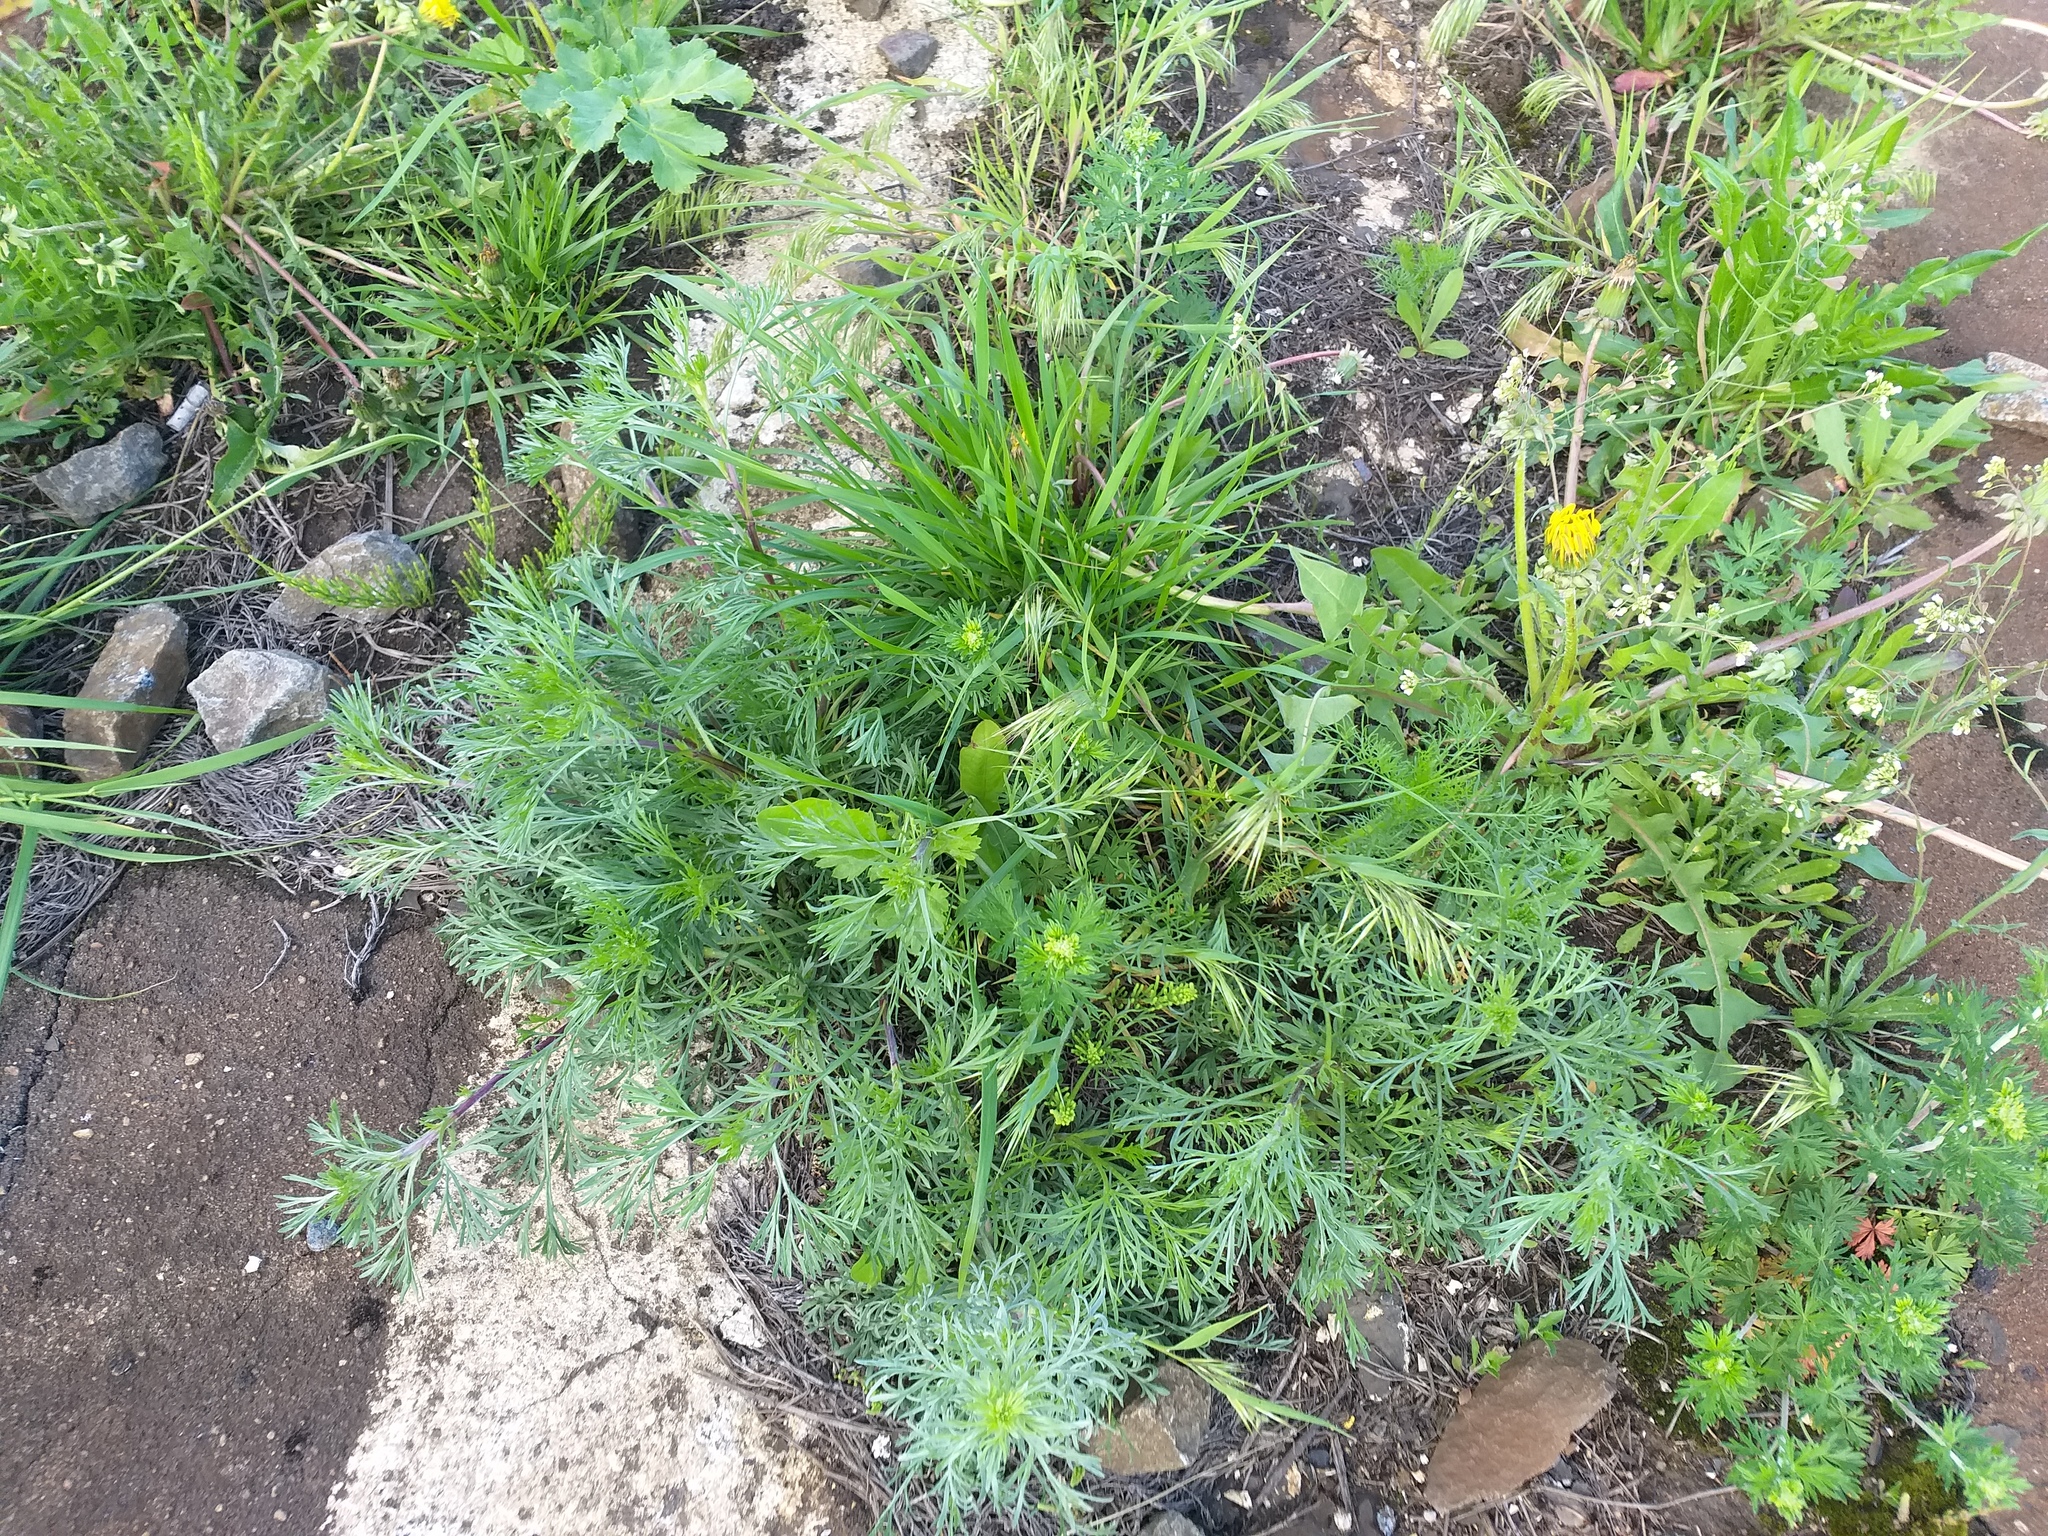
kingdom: Plantae
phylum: Tracheophyta
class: Magnoliopsida
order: Asterales
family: Asteraceae
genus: Artemisia
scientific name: Artemisia campestris
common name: Field wormwood
